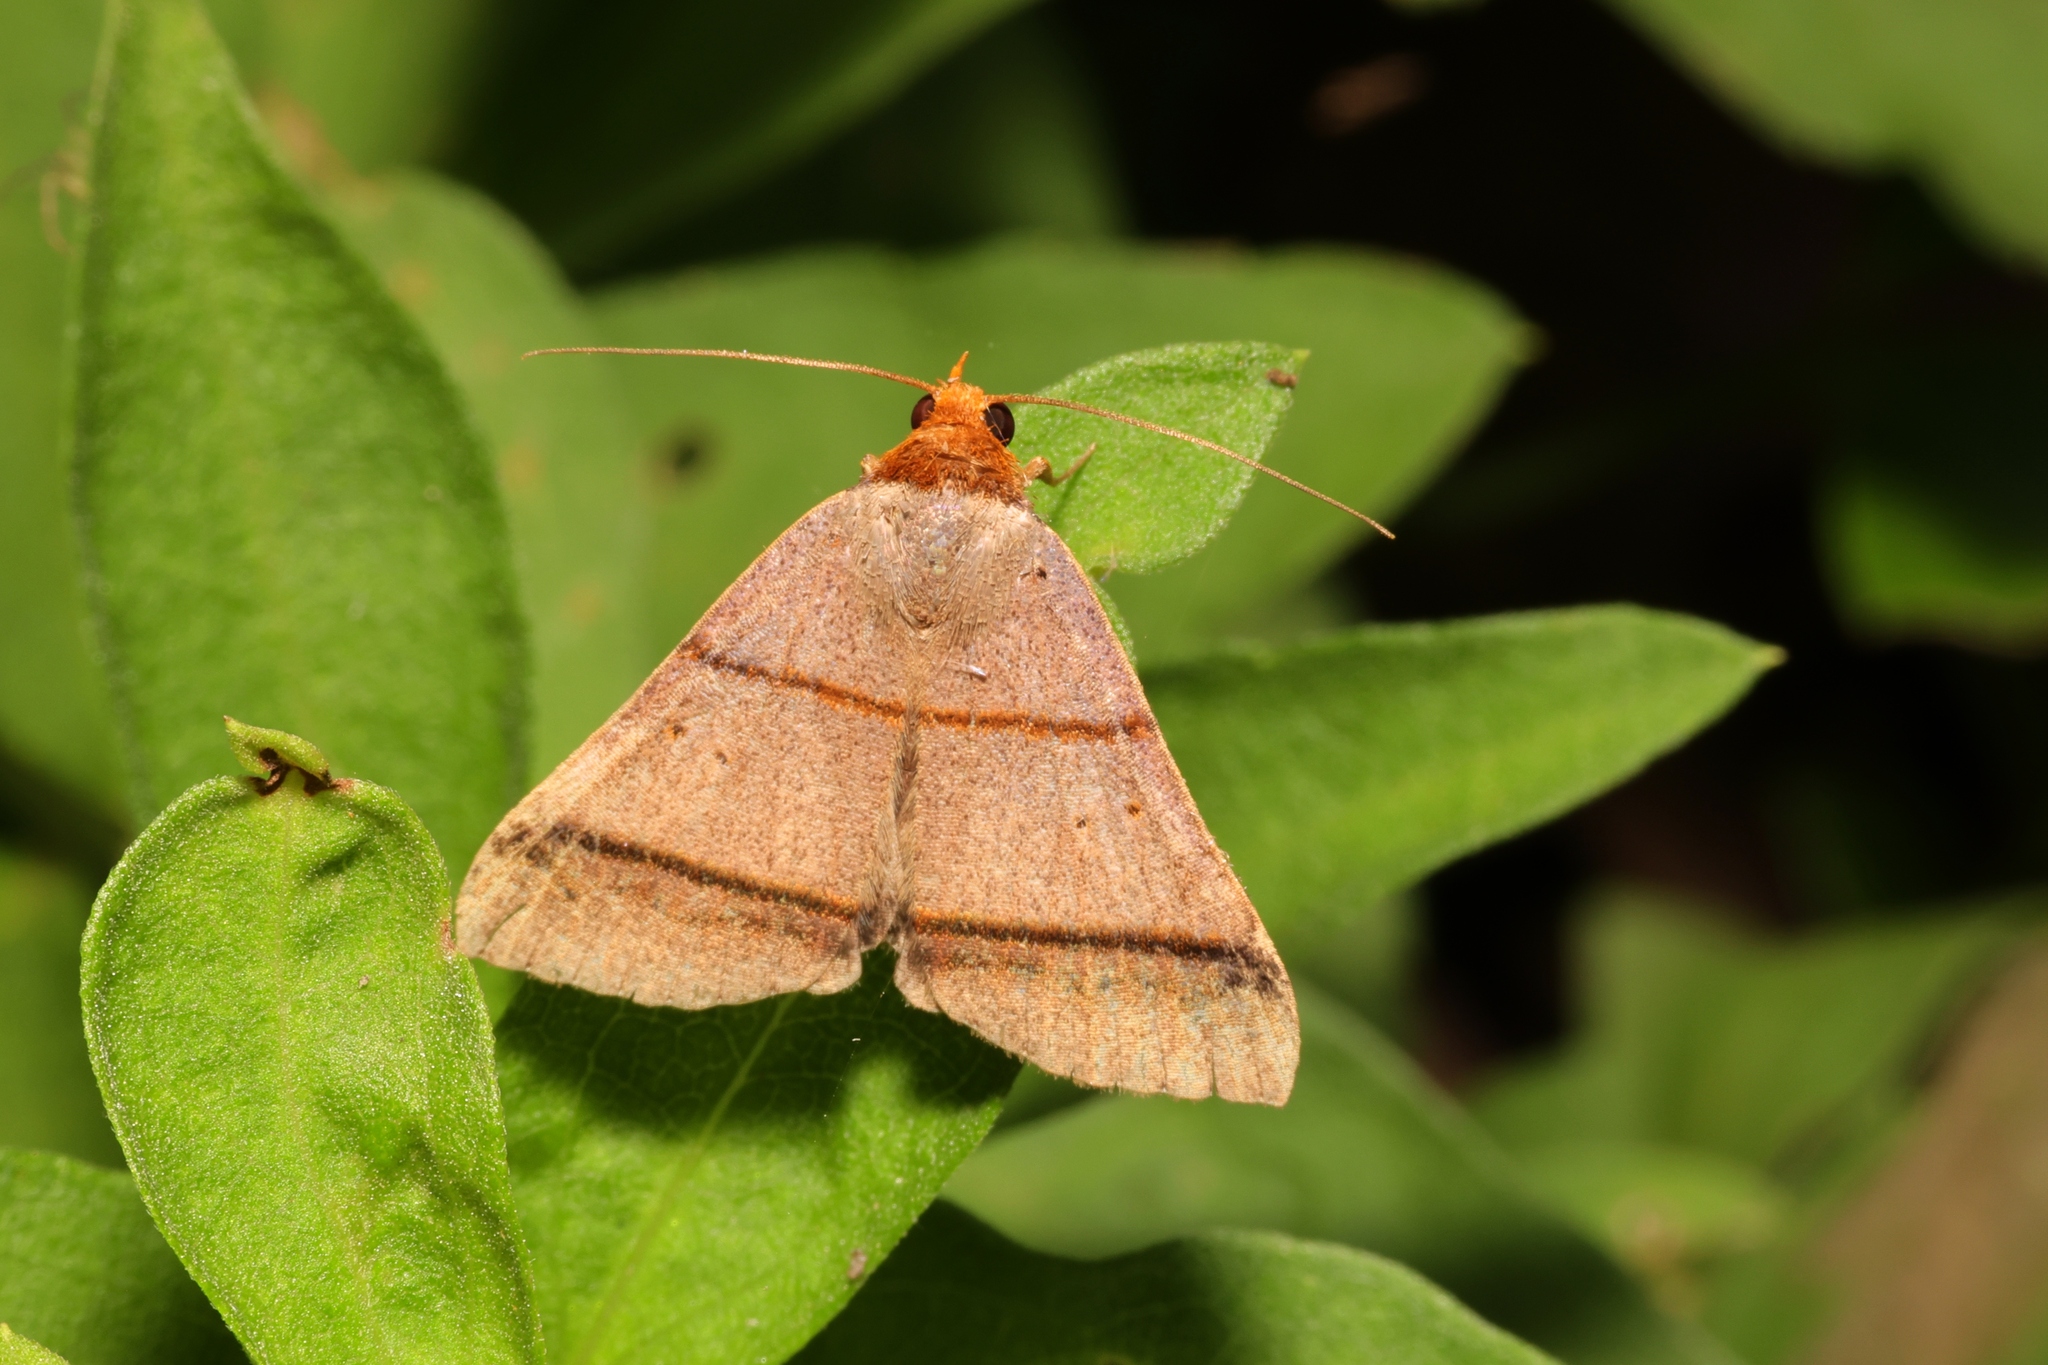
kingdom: Animalia
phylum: Arthropoda
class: Insecta
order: Lepidoptera
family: Erebidae
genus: Plecoptera
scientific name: Plecoptera recta
